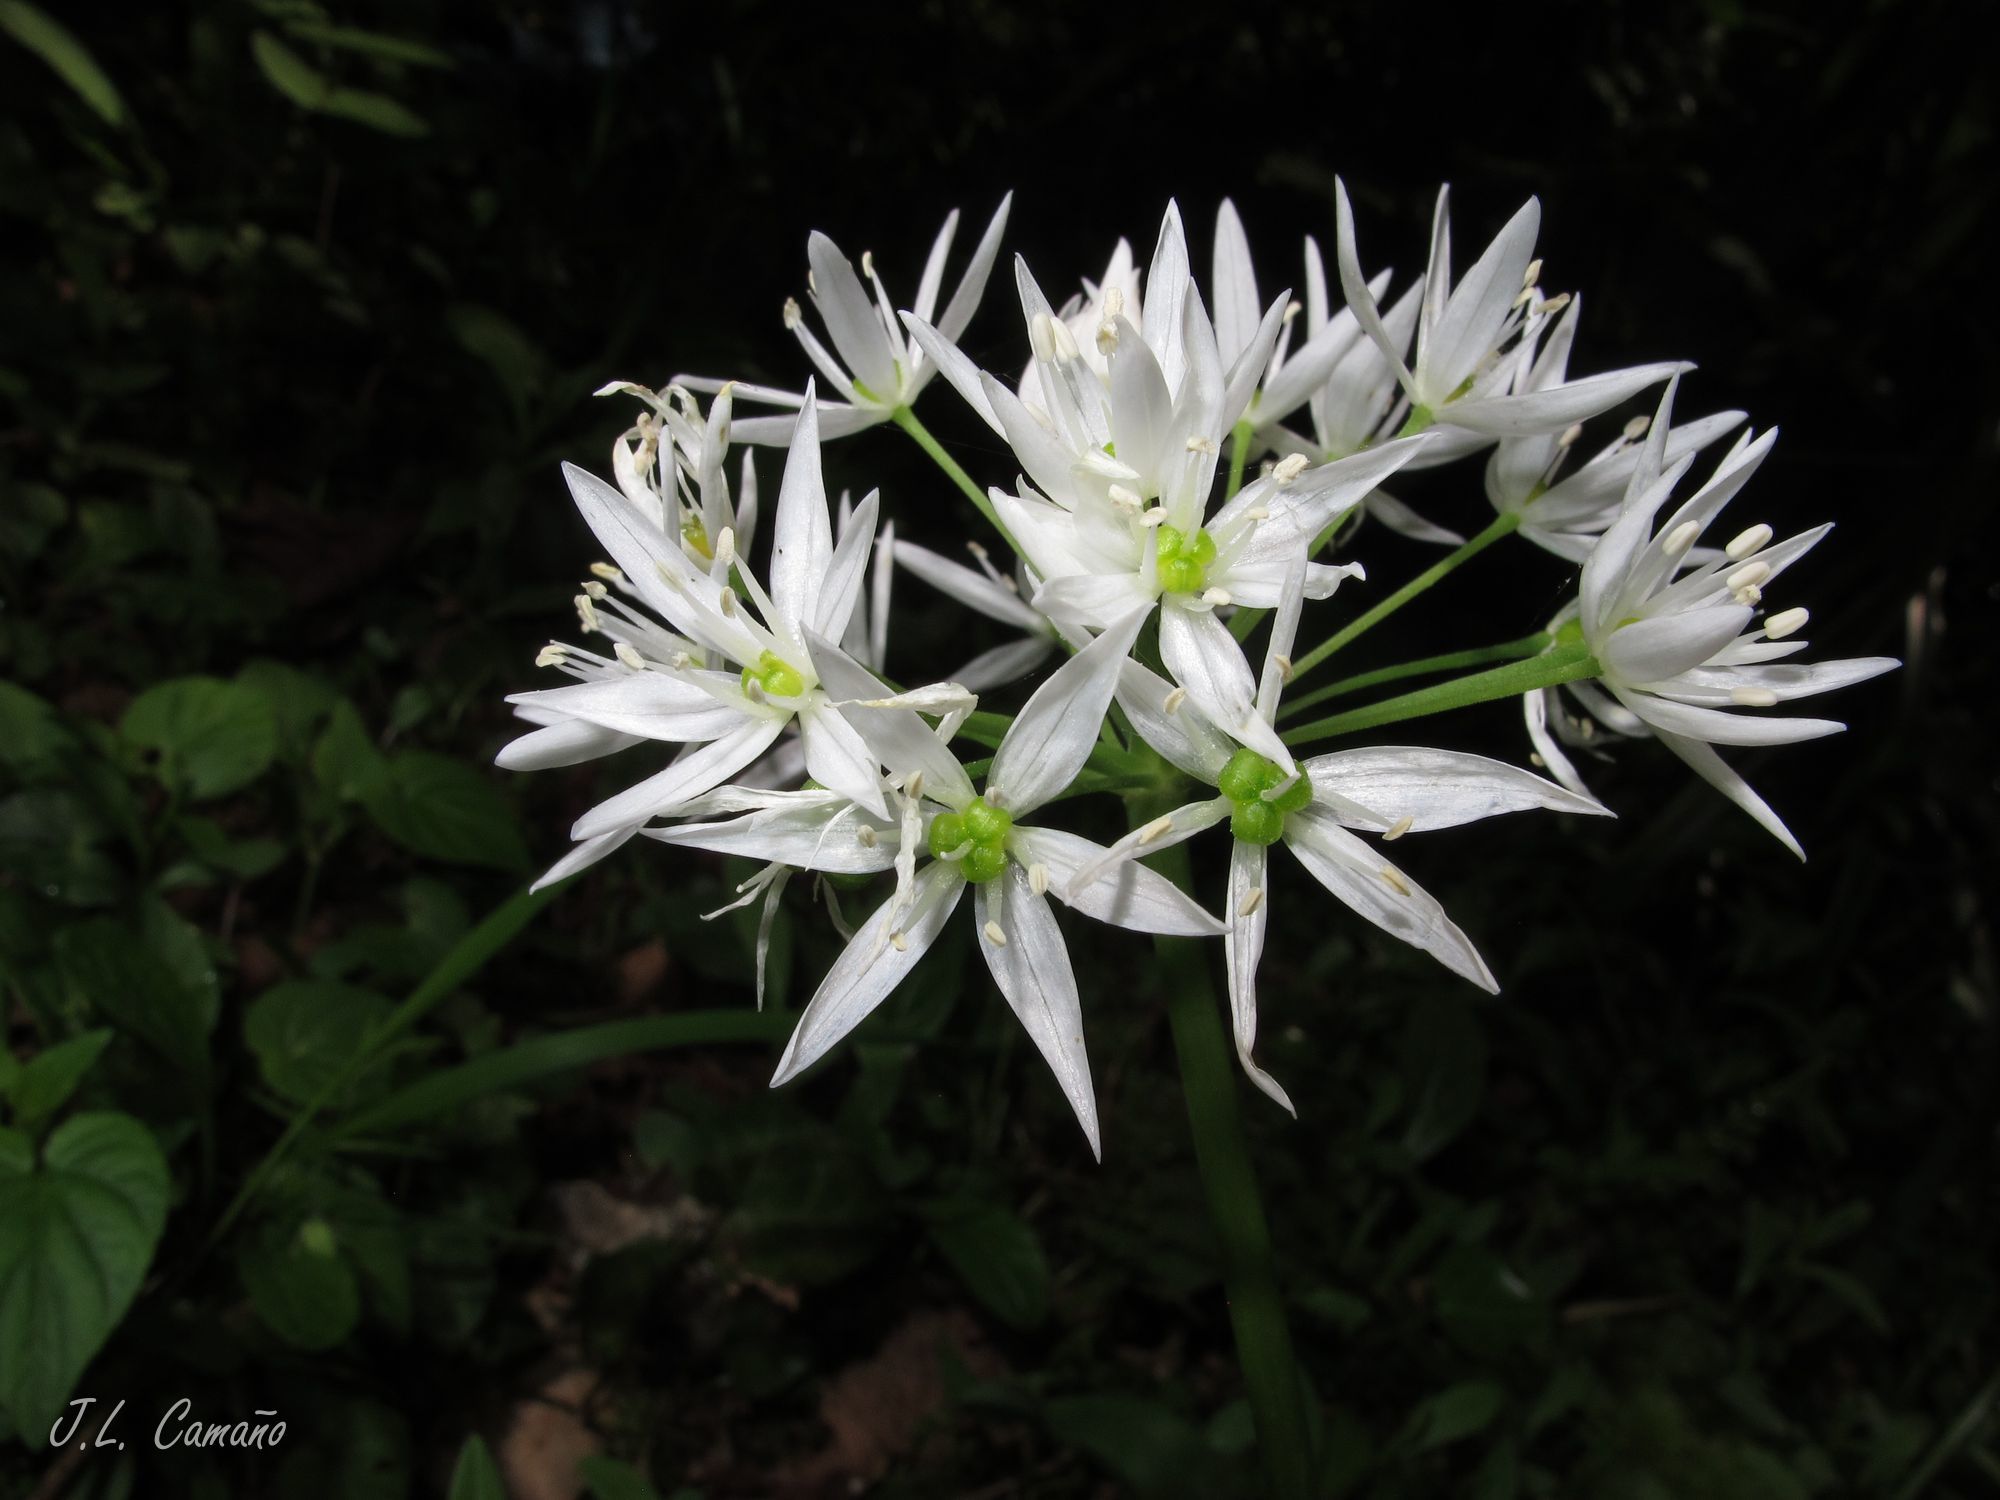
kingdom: Plantae
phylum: Tracheophyta
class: Liliopsida
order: Asparagales
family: Amaryllidaceae
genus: Allium
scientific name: Allium ursinum
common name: Ramsons
